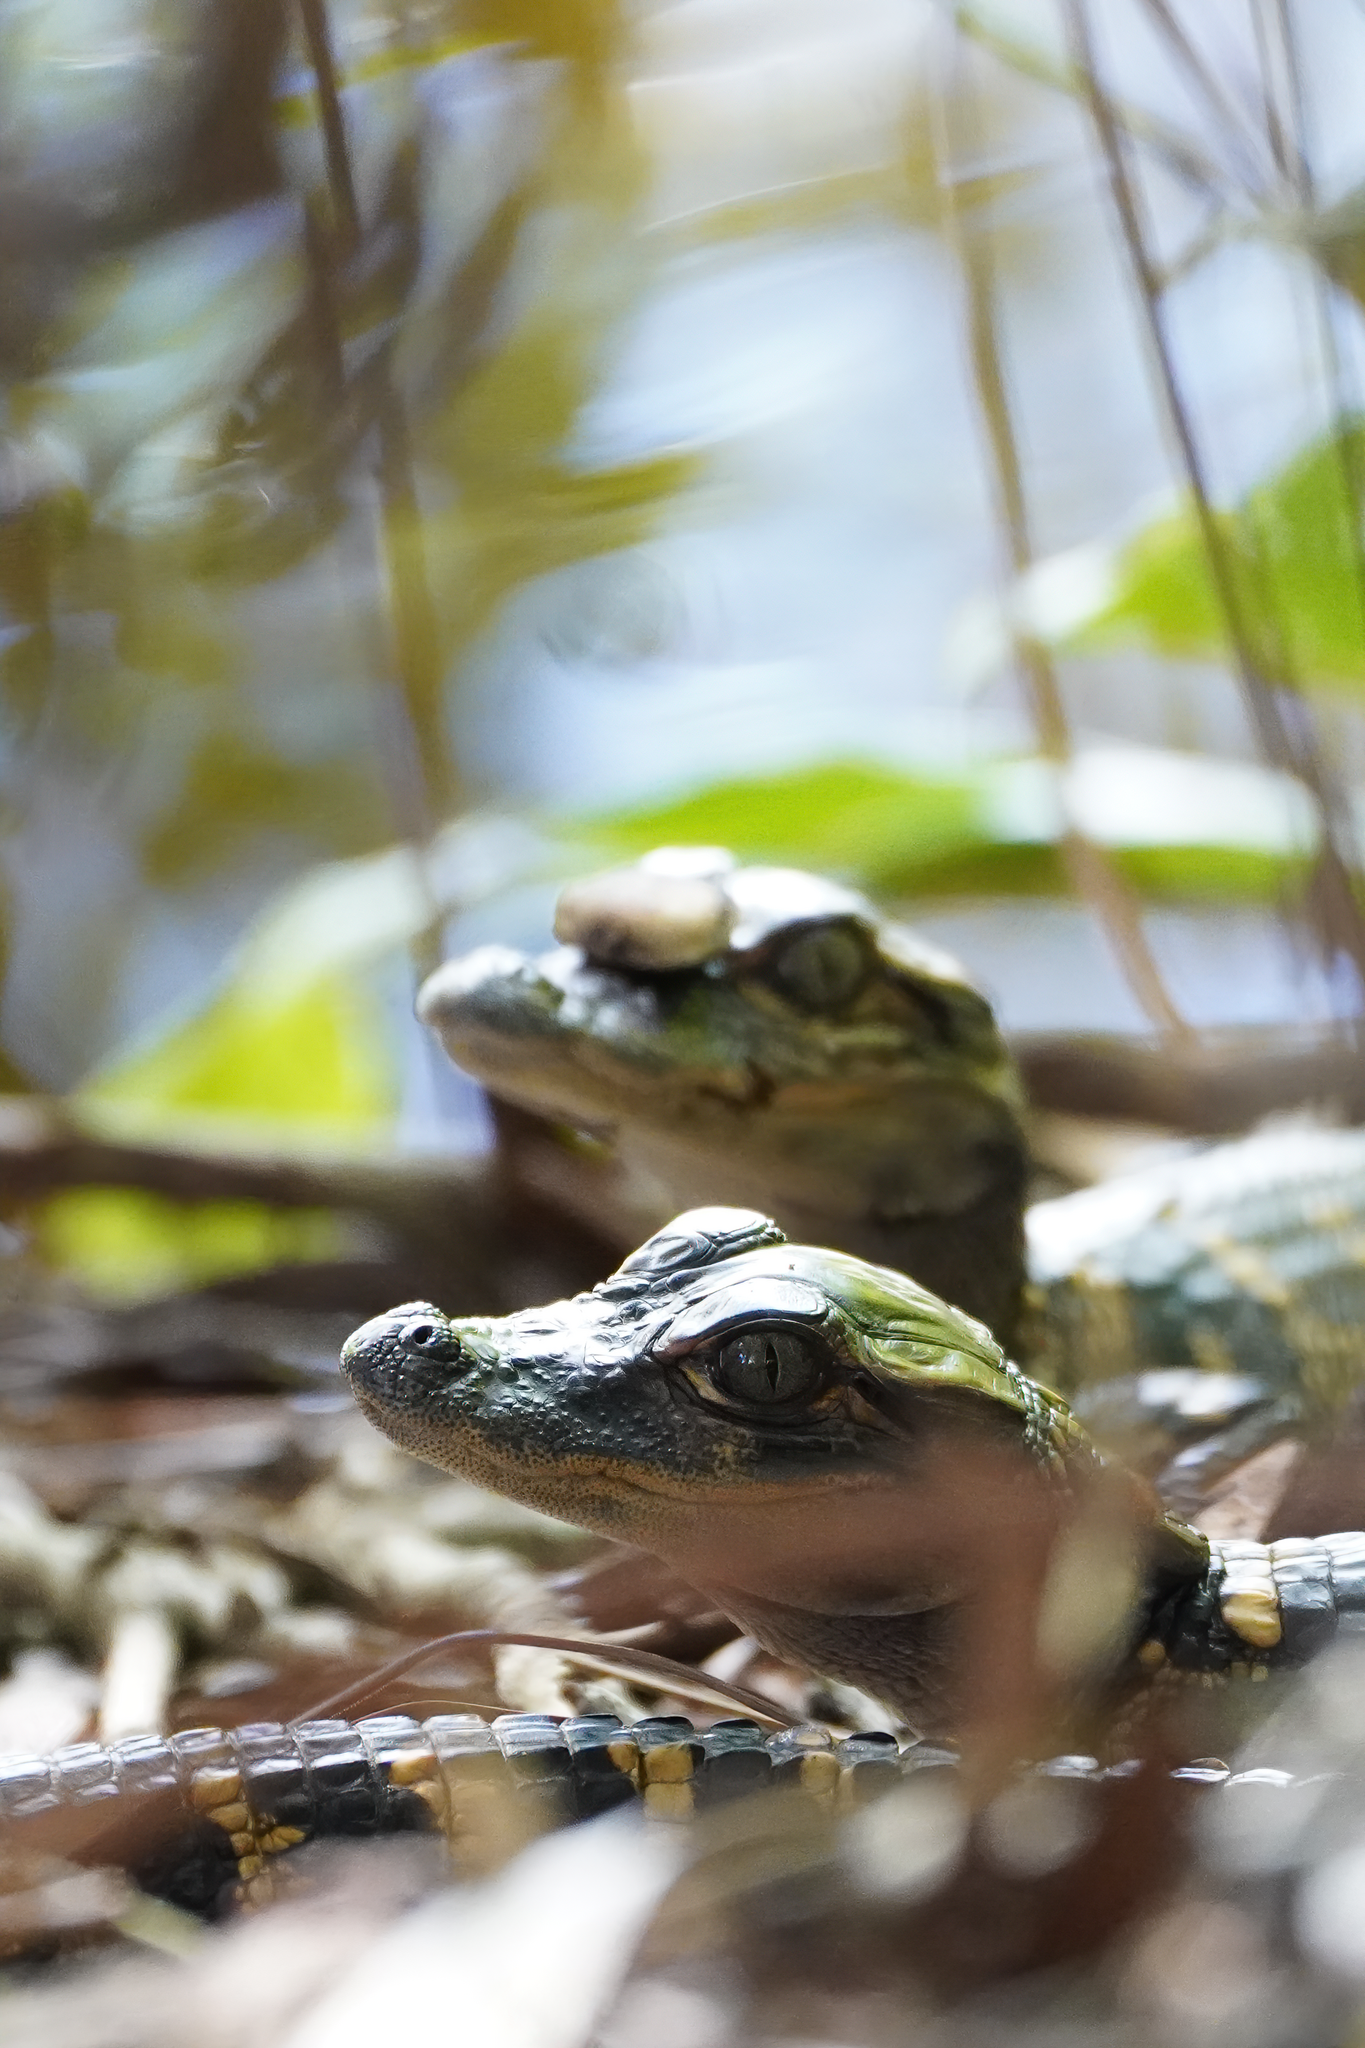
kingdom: Animalia
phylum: Chordata
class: Crocodylia
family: Alligatoridae
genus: Alligator
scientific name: Alligator mississippiensis
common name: American alligator
